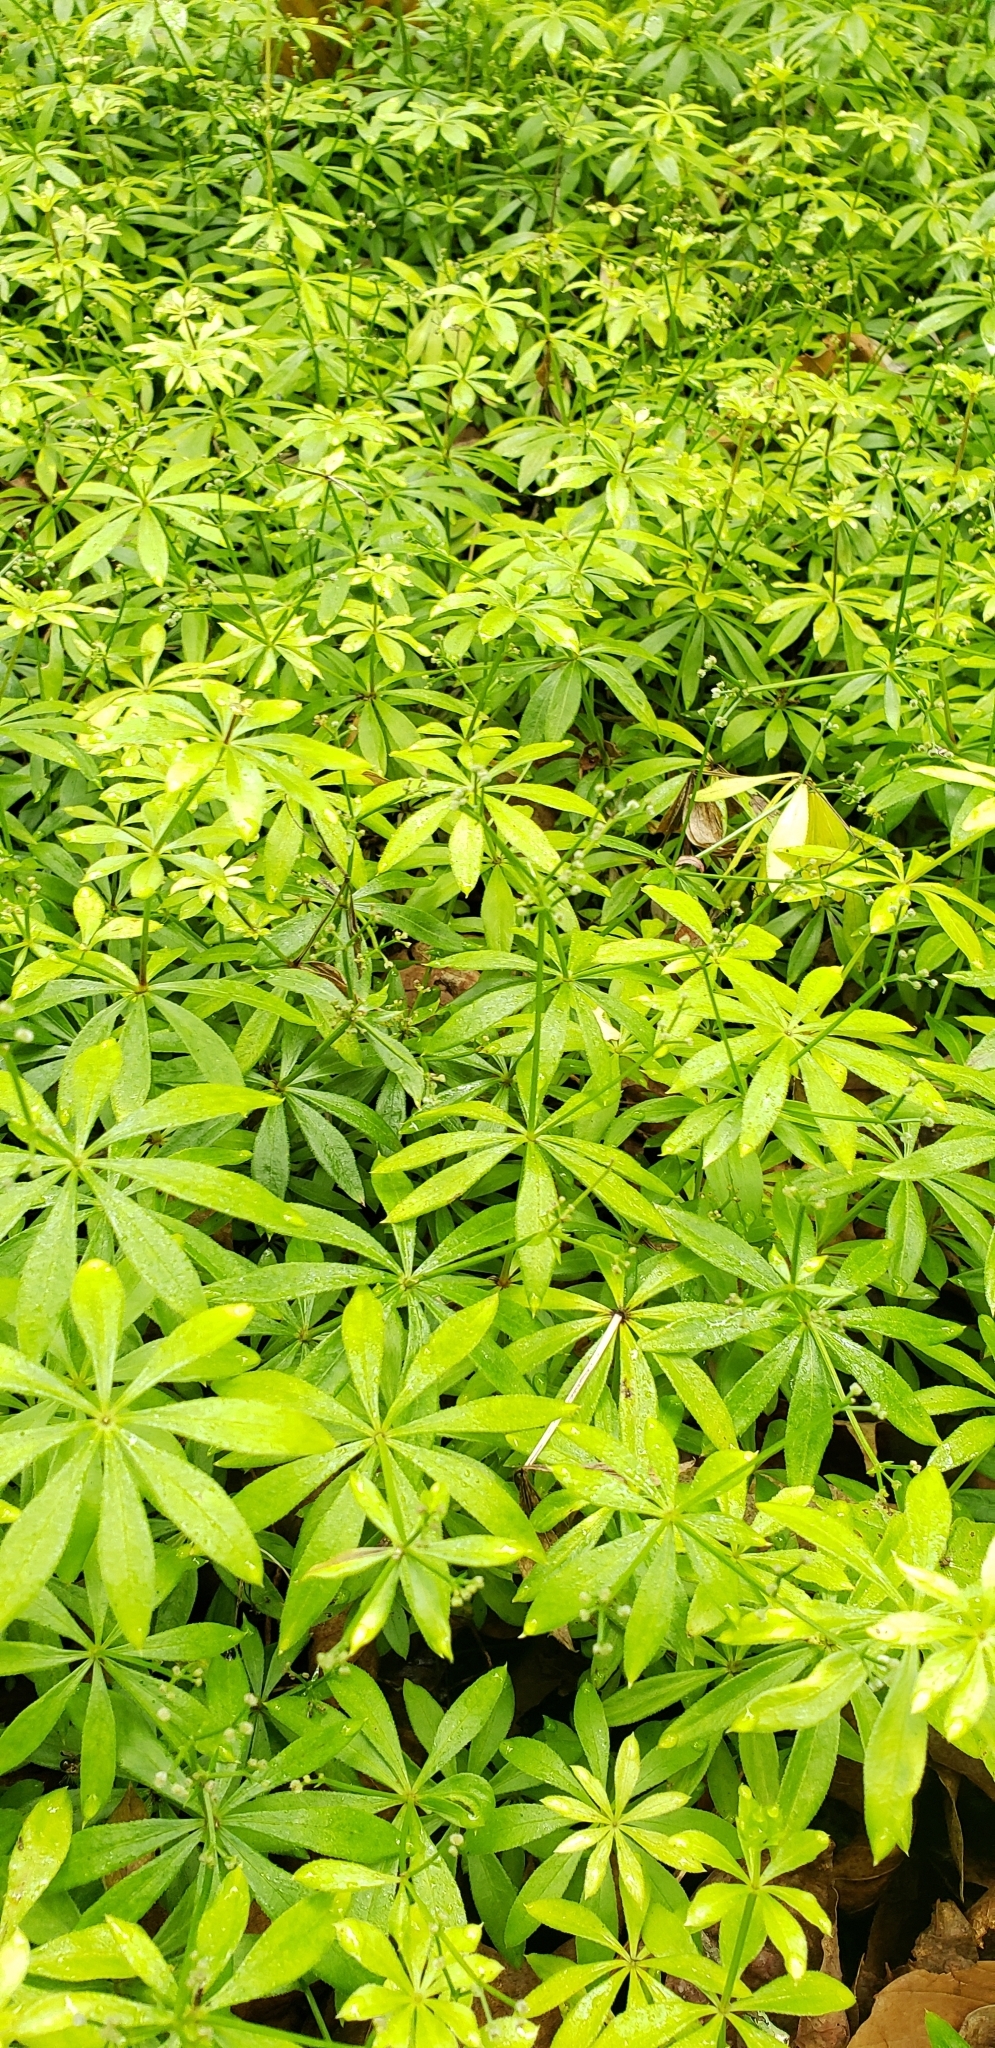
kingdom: Plantae
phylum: Tracheophyta
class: Magnoliopsida
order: Gentianales
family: Rubiaceae
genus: Galium
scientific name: Galium odoratum
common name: Sweet woodruff
